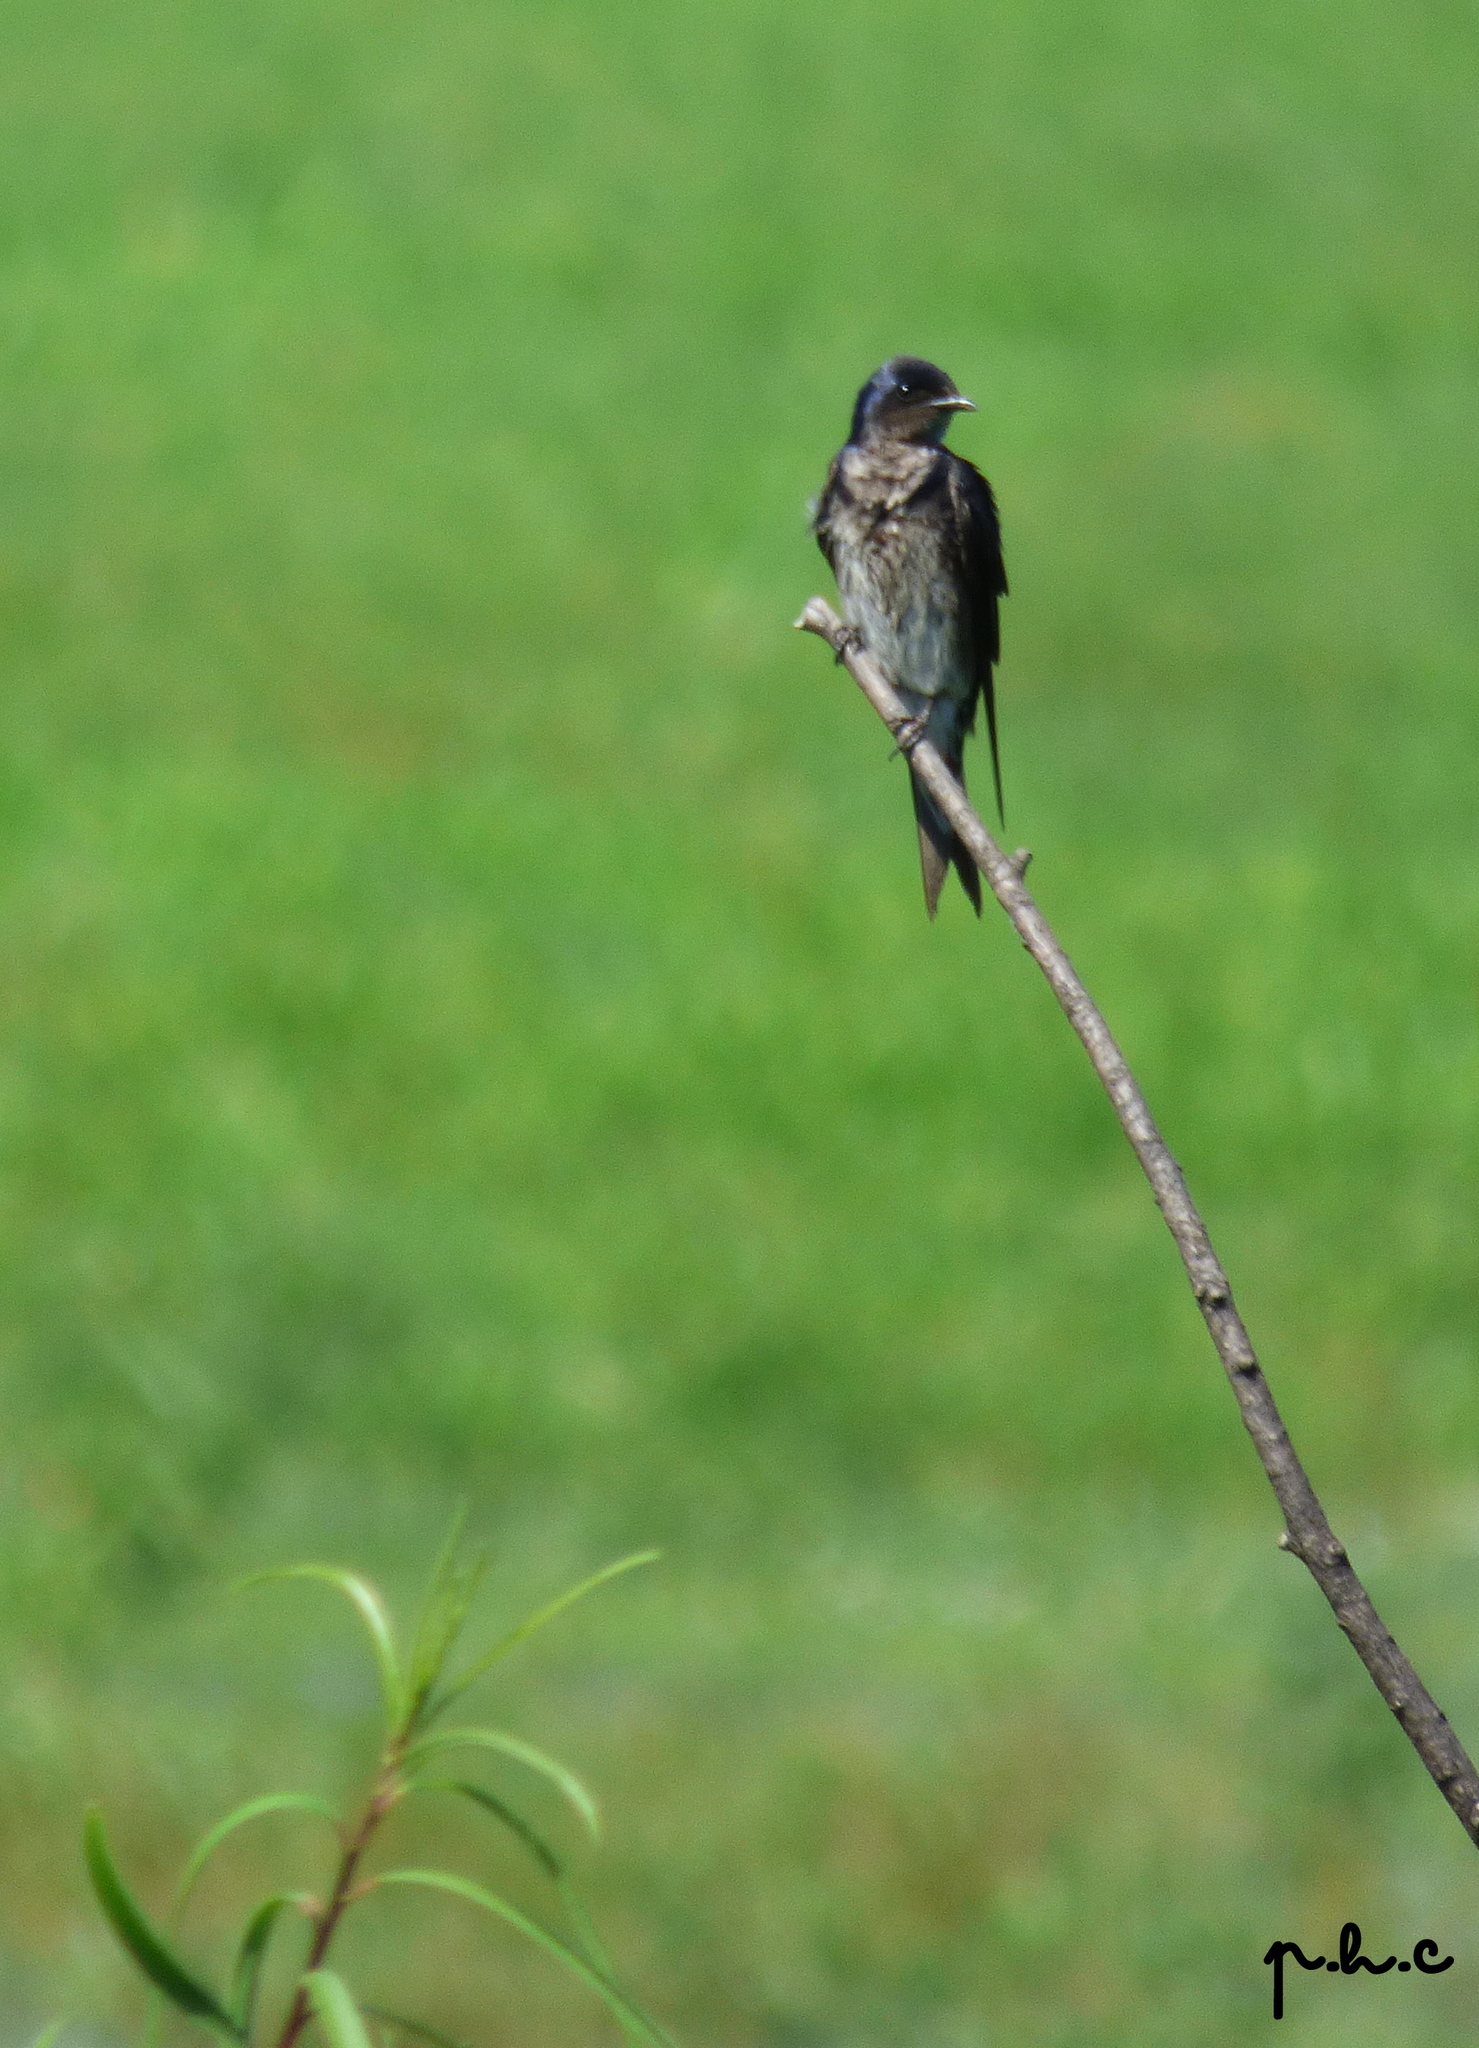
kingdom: Animalia
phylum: Chordata
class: Aves
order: Passeriformes
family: Hirundinidae
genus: Progne
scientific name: Progne chalybea
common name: Grey-breasted martin
